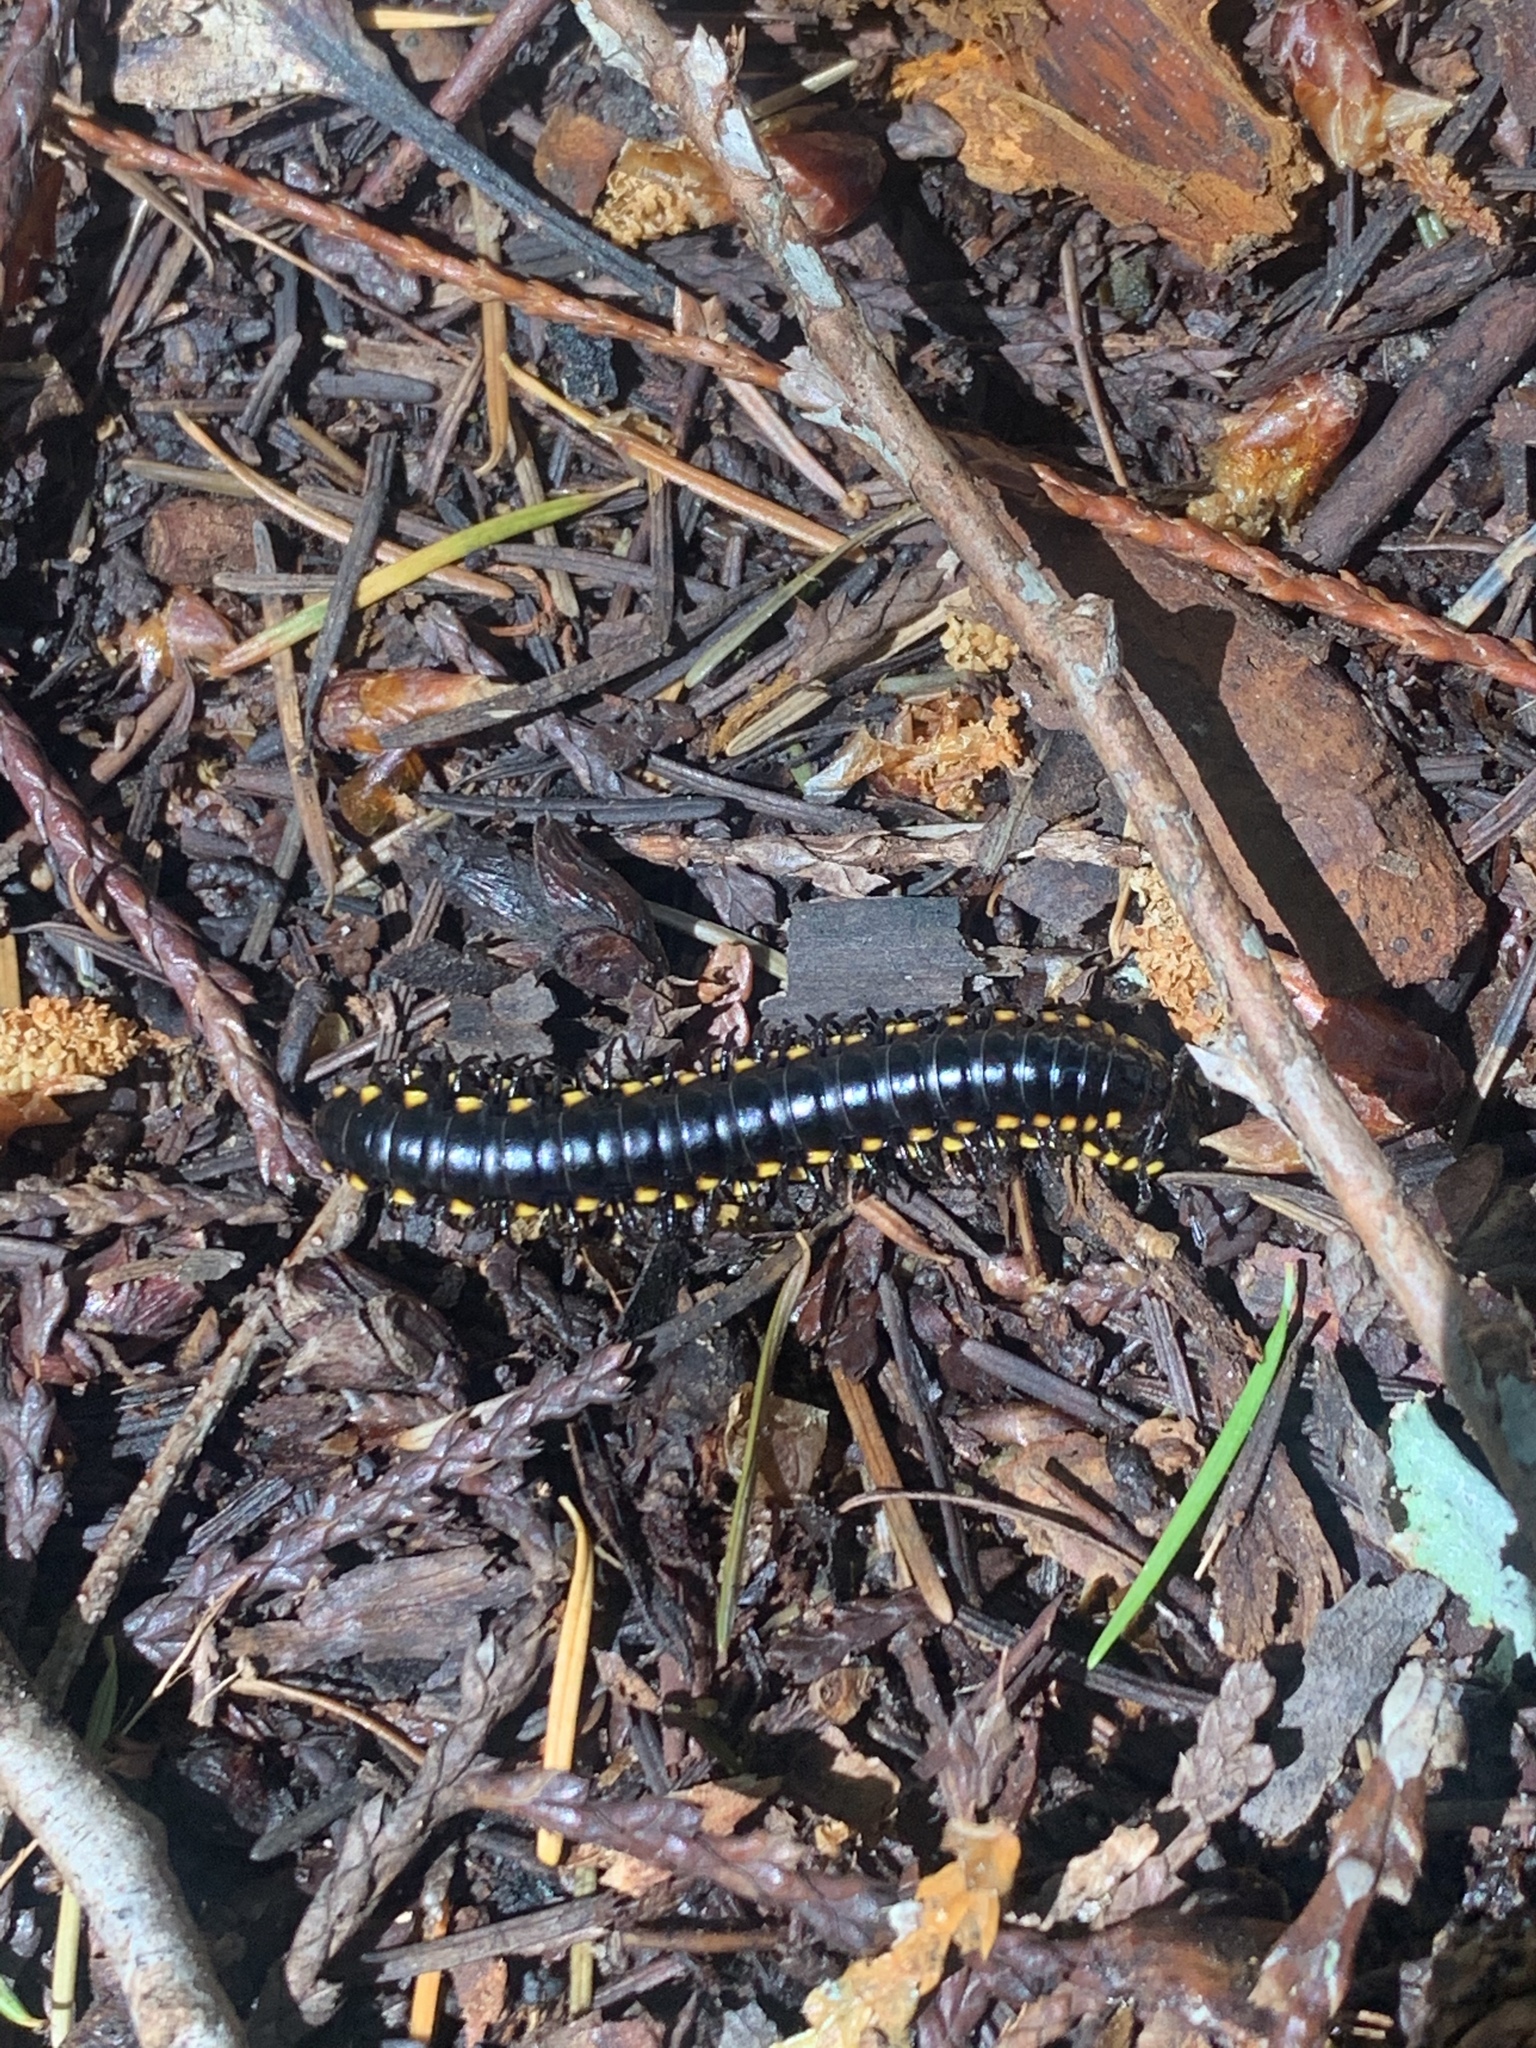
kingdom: Animalia
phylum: Arthropoda
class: Diplopoda
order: Polydesmida
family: Xystodesmidae
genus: Harpaphe
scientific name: Harpaphe haydeniana
